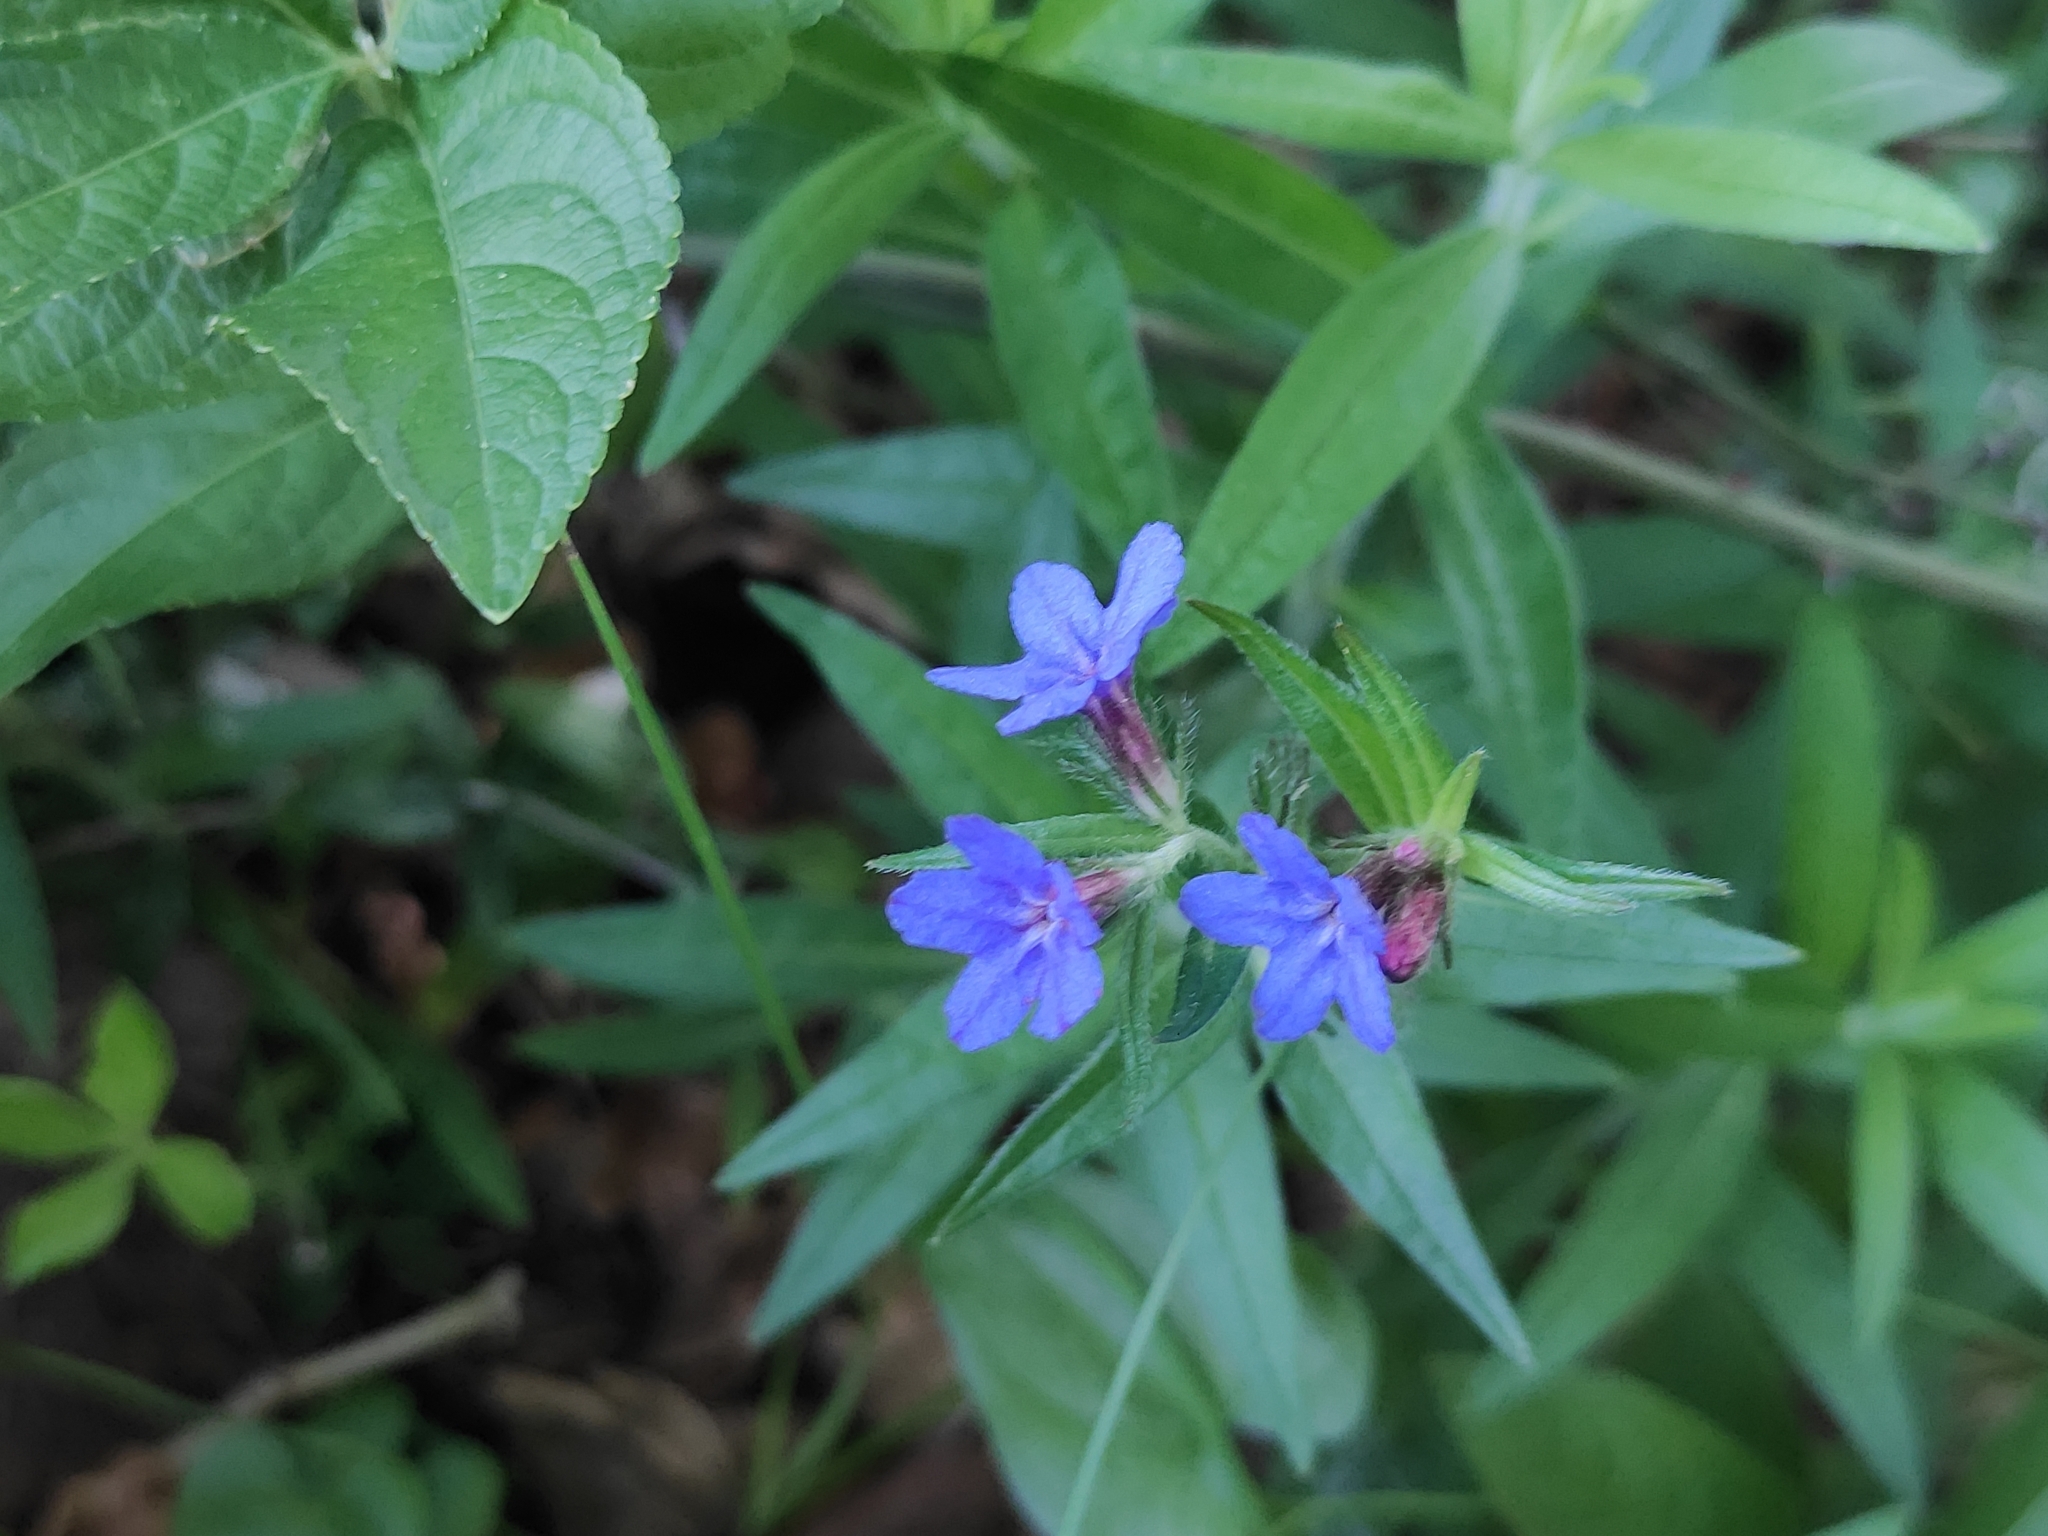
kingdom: Plantae
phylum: Tracheophyta
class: Magnoliopsida
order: Boraginales
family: Boraginaceae
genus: Aegonychon
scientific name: Aegonychon purpurocaeruleum
